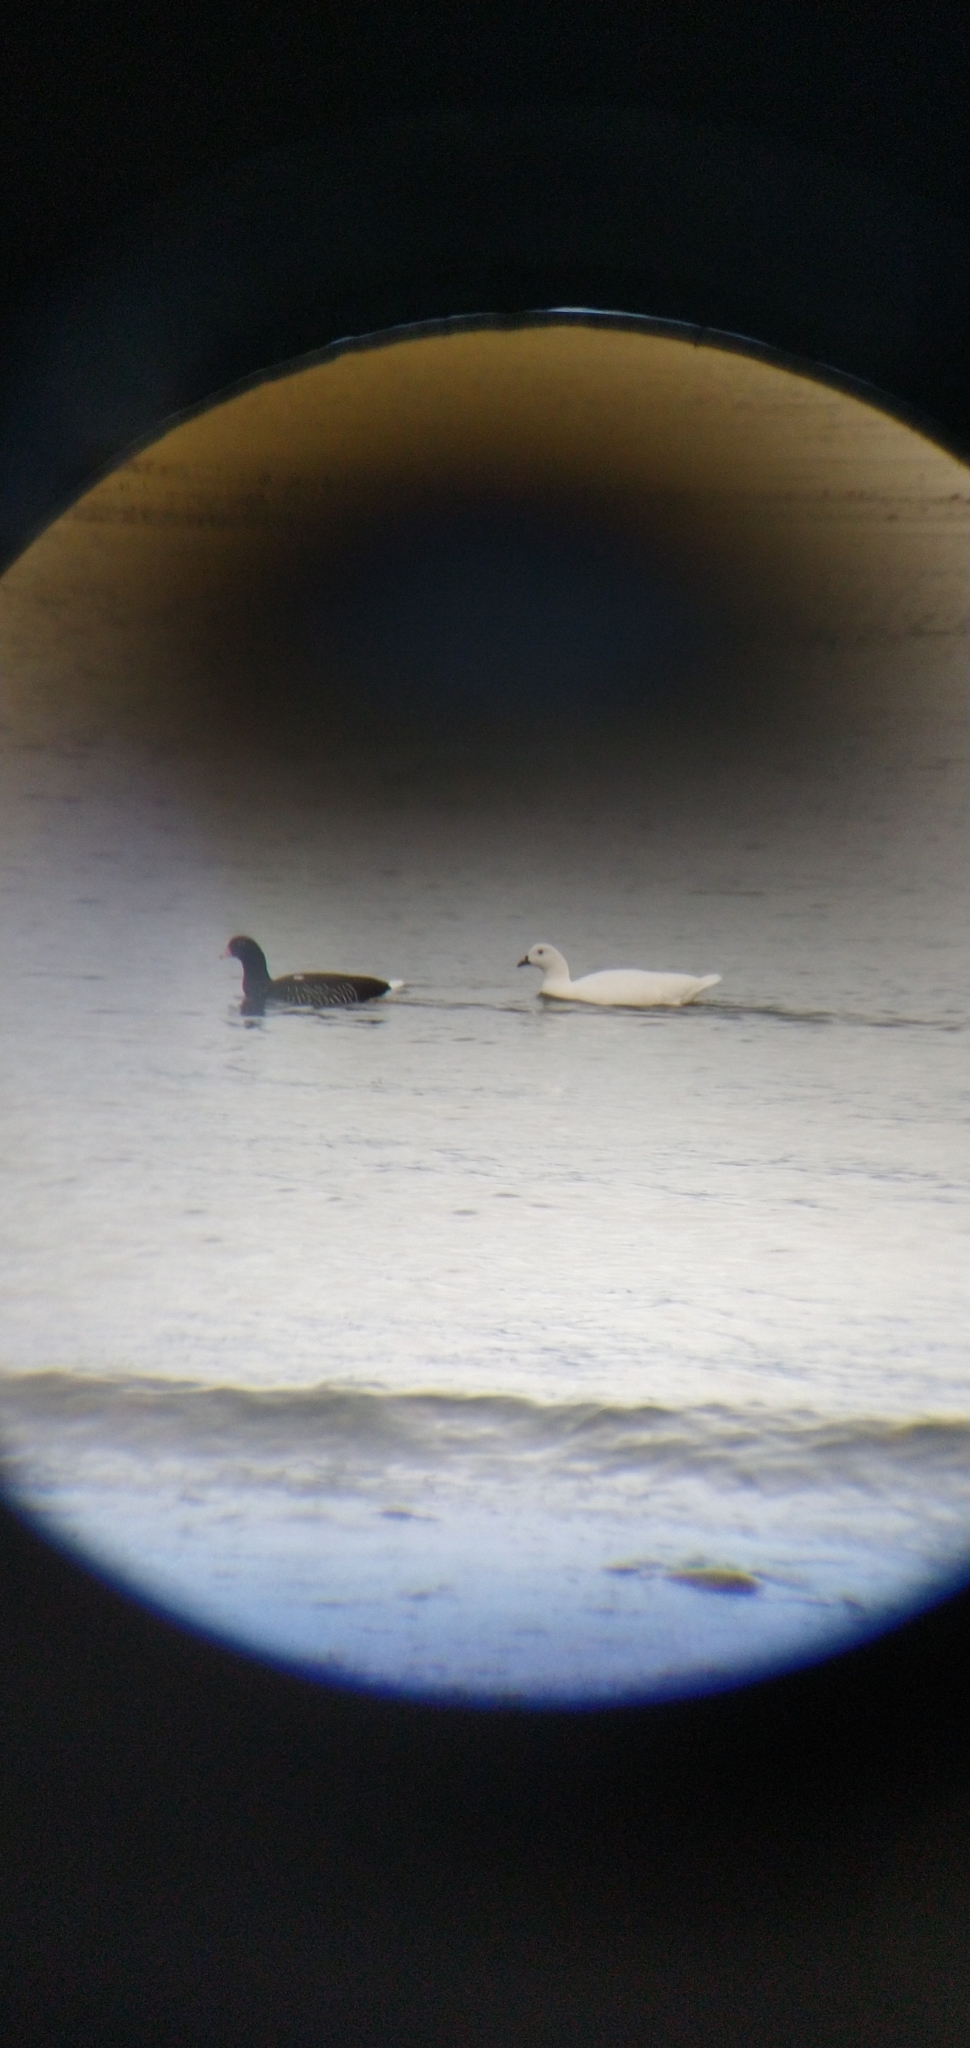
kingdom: Animalia
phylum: Chordata
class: Aves
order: Anseriformes
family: Anatidae
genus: Chloephaga
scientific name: Chloephaga hybrida
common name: Kelp goose
